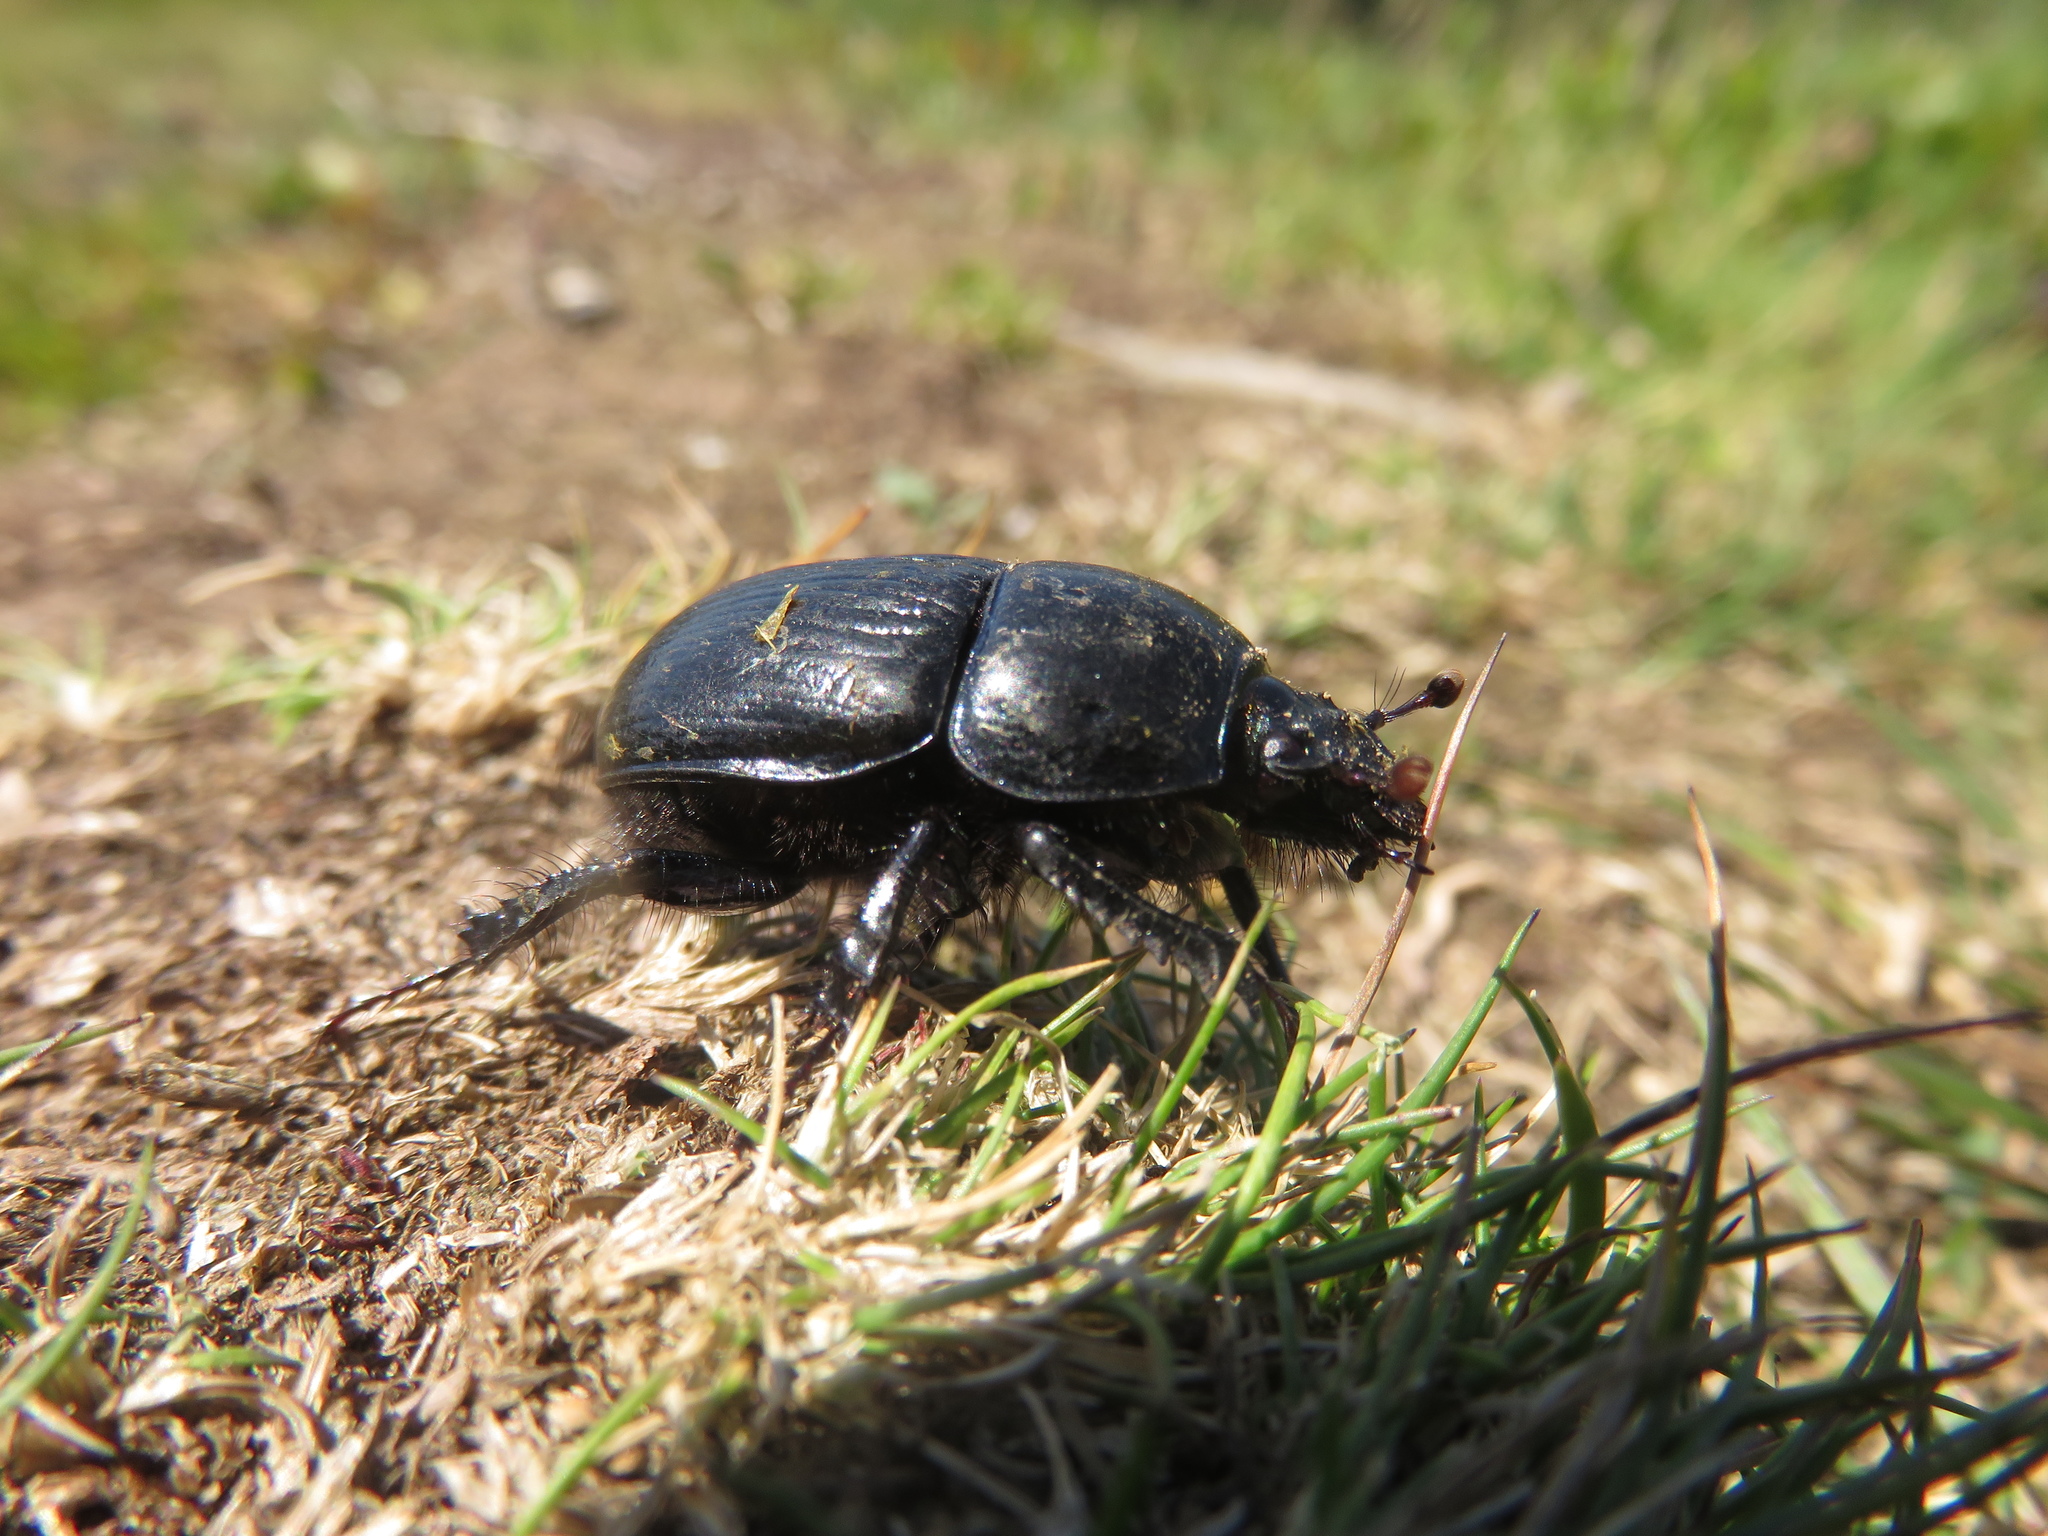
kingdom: Animalia
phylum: Arthropoda
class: Insecta
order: Coleoptera
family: Geotrupidae
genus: Anoplotrupes
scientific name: Anoplotrupes stercorosus
